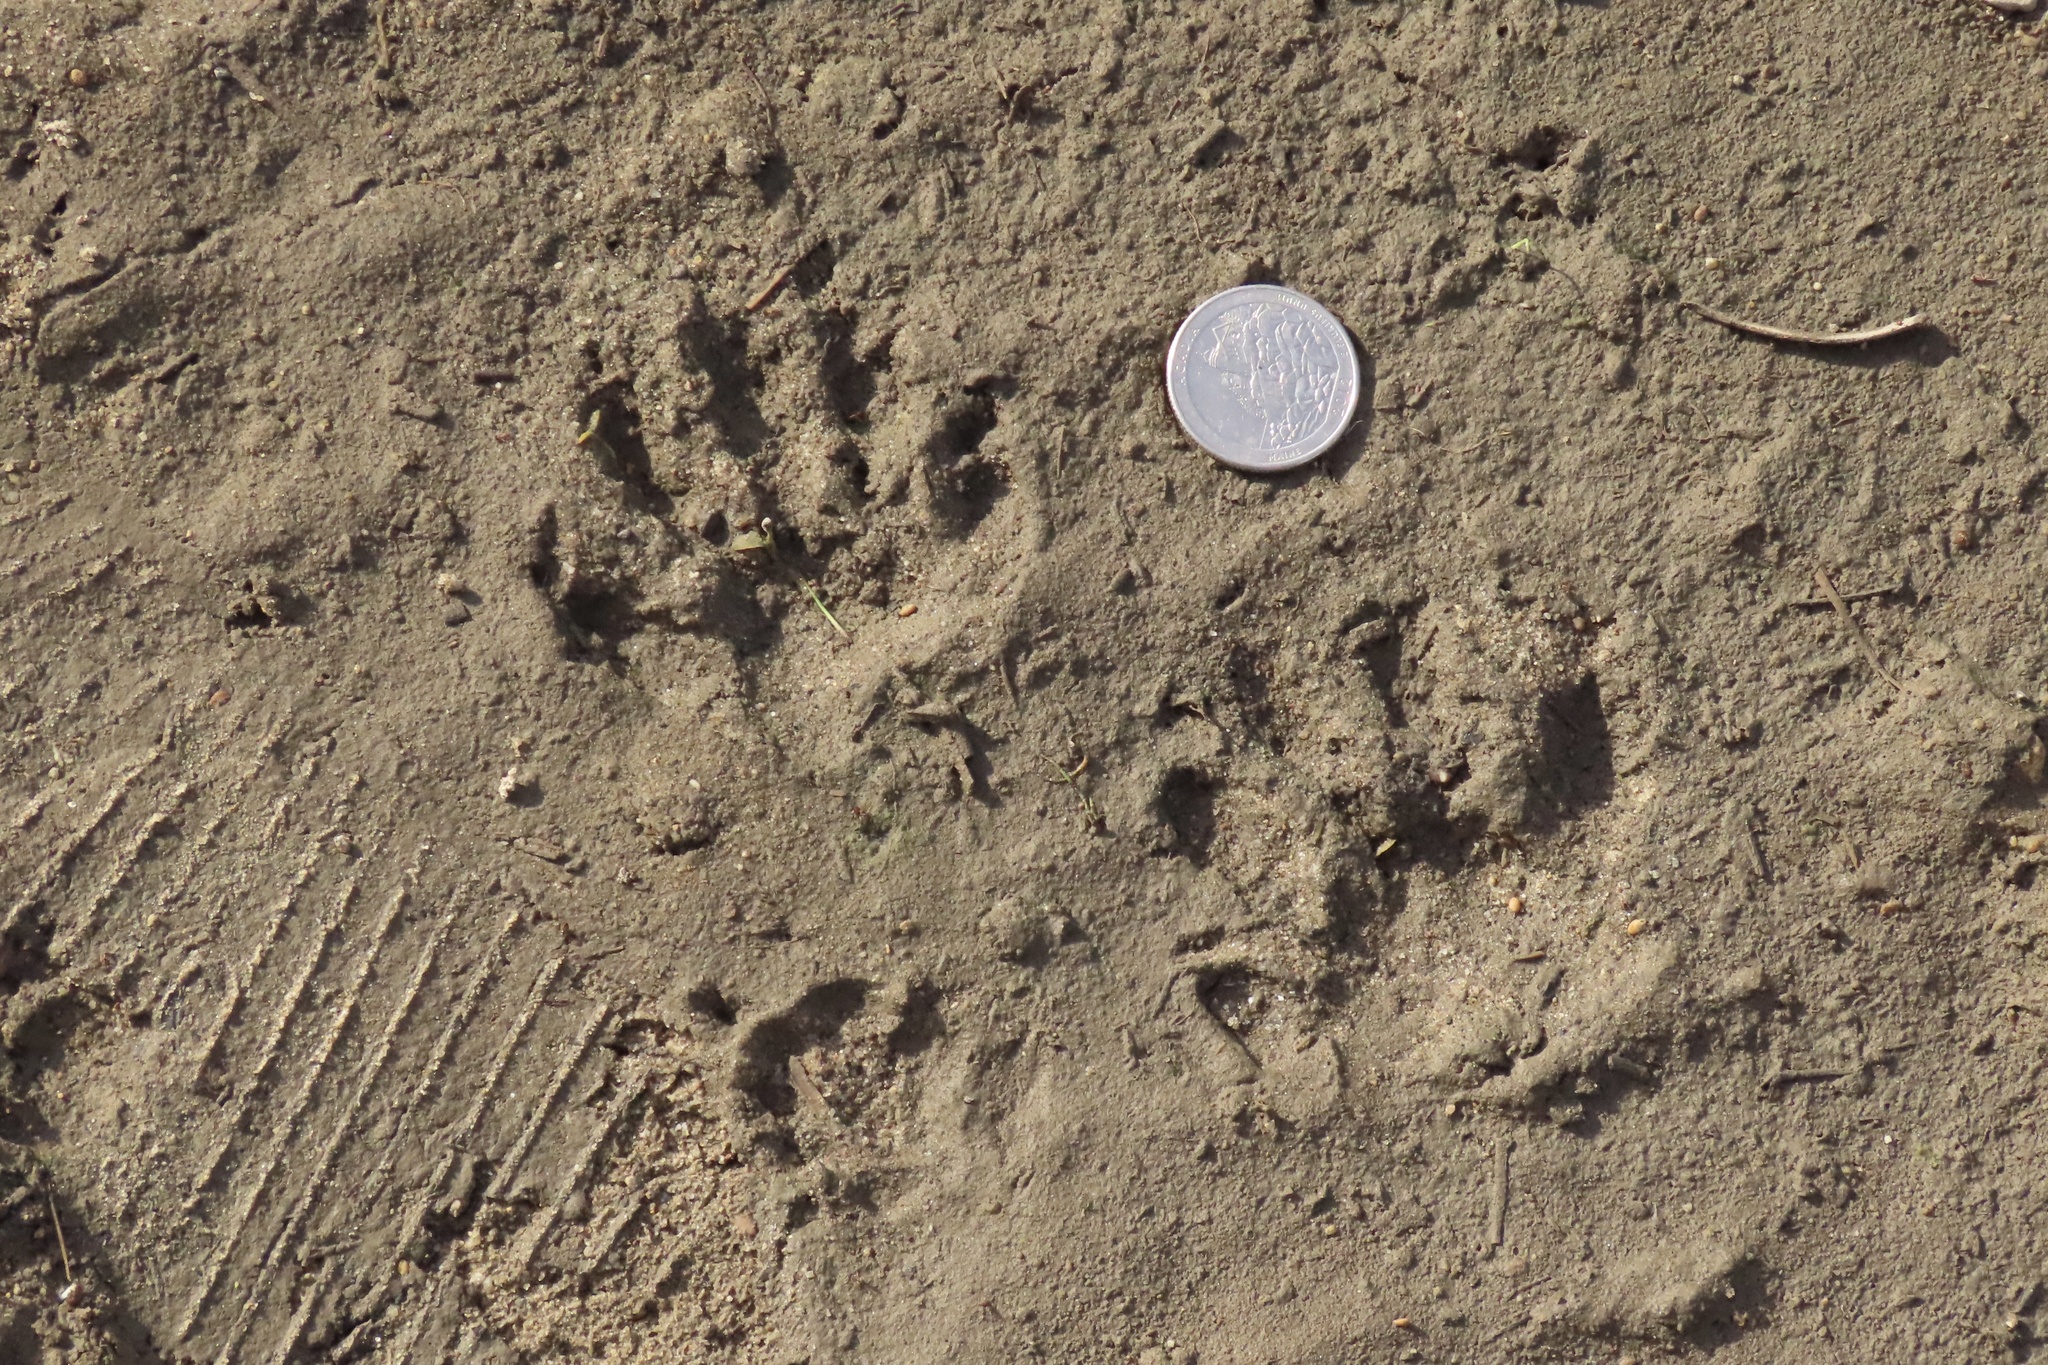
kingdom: Animalia
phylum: Chordata
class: Mammalia
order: Carnivora
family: Procyonidae
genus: Procyon
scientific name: Procyon lotor
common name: Raccoon
